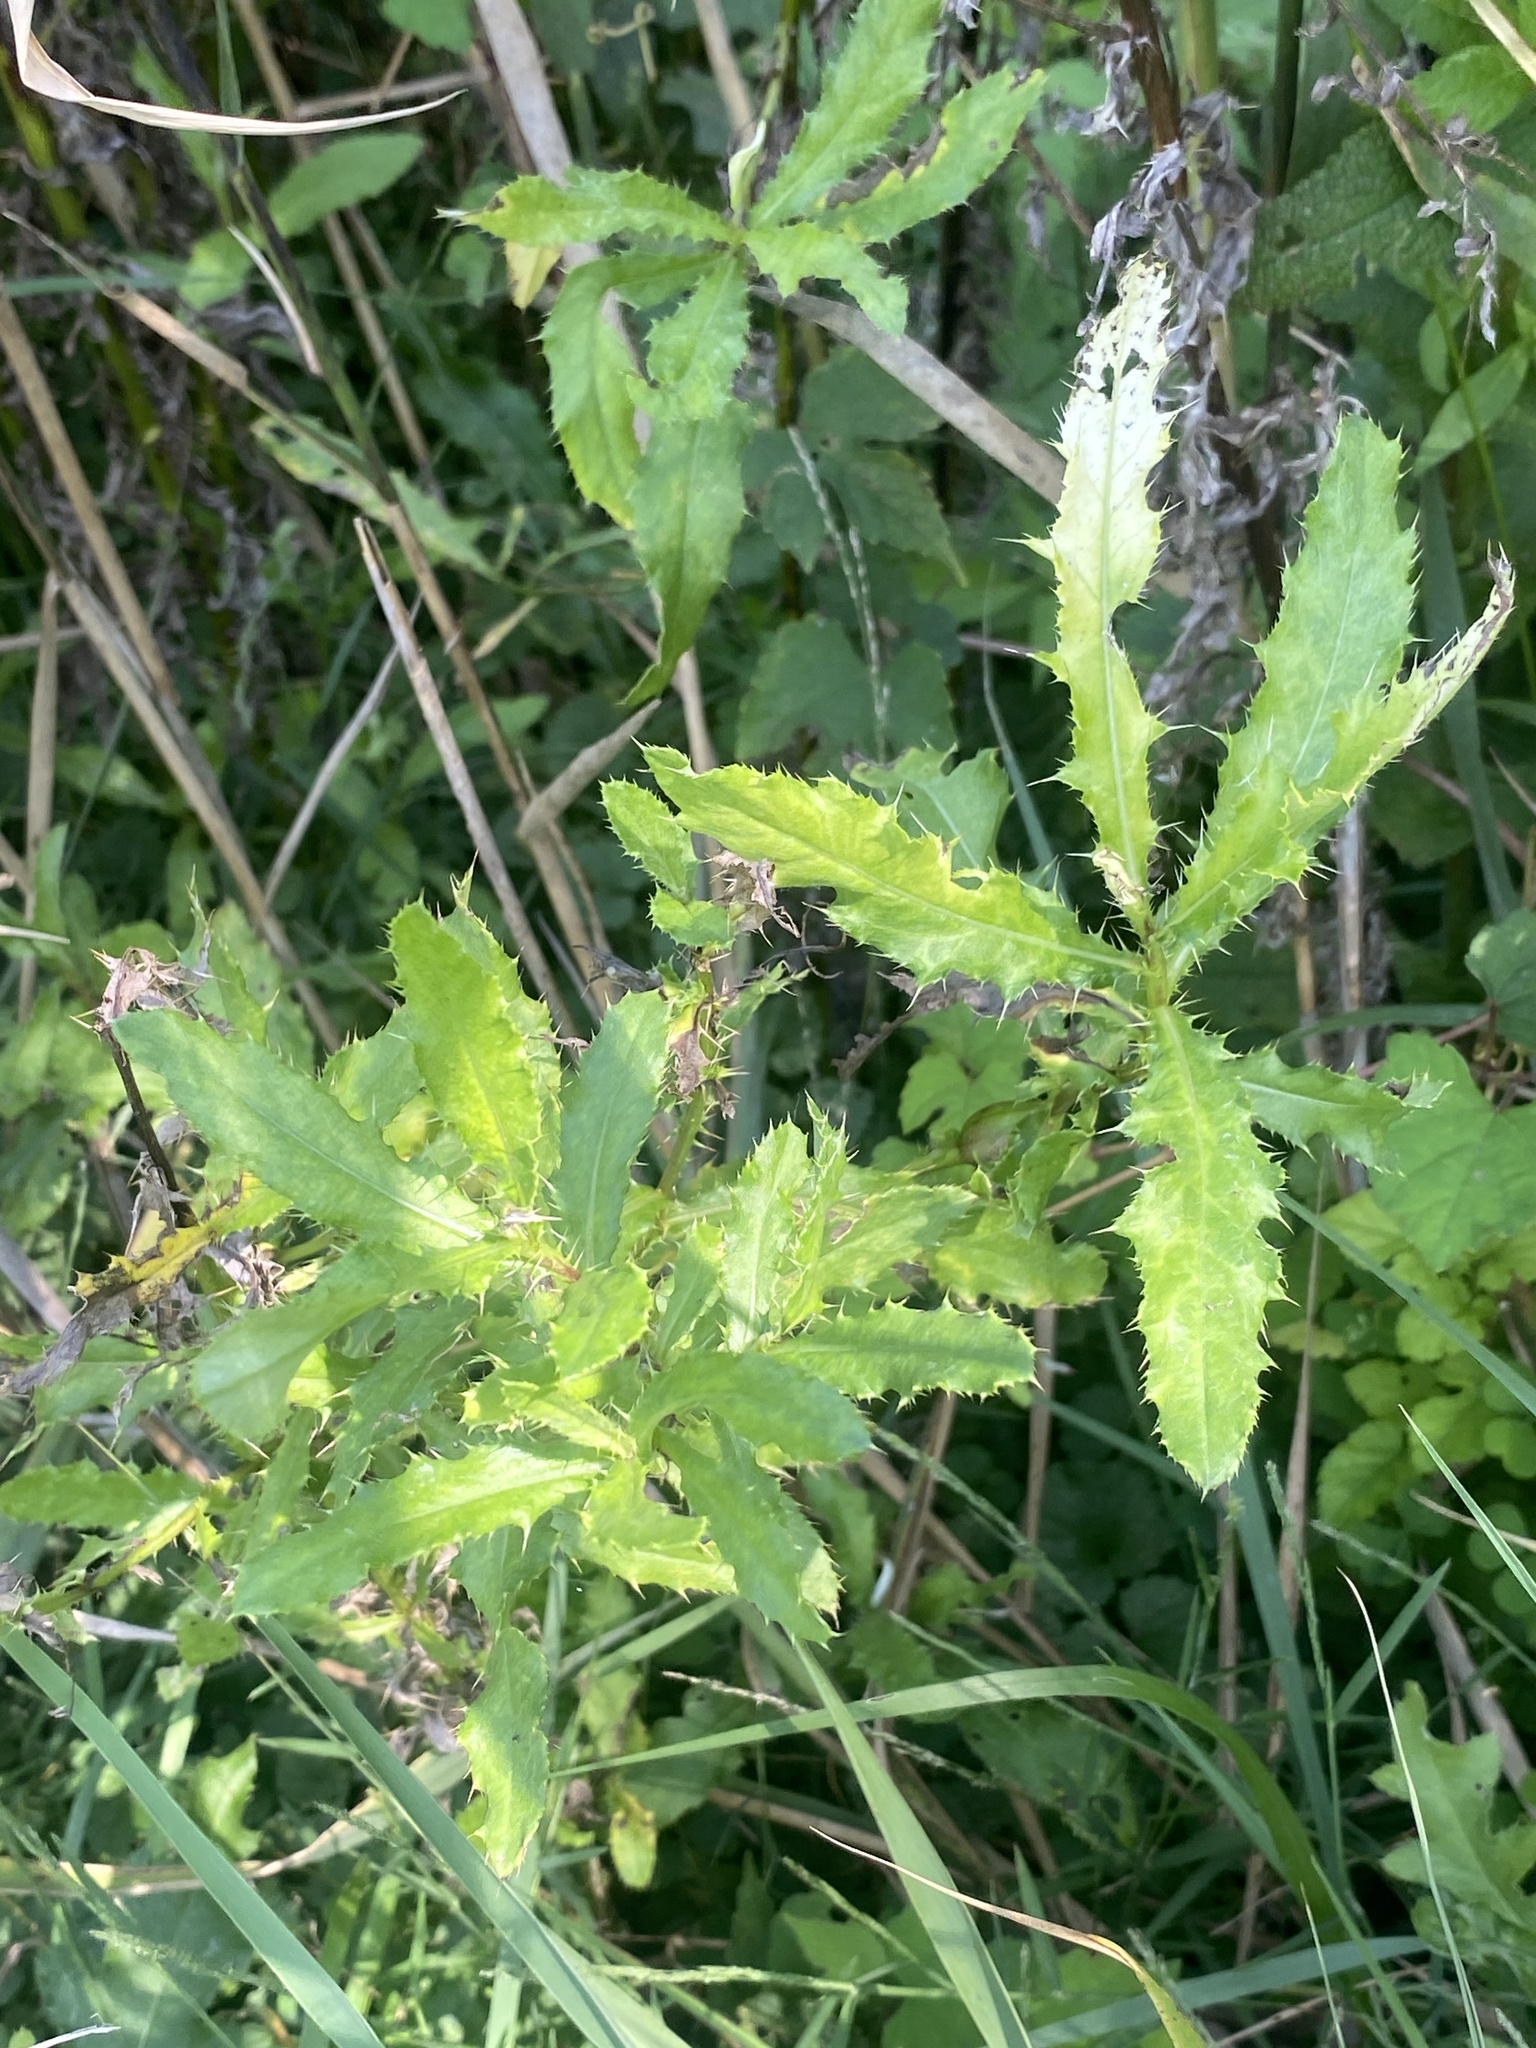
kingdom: Plantae
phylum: Tracheophyta
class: Magnoliopsida
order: Asterales
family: Asteraceae
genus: Cirsium
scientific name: Cirsium arvense
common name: Creeping thistle
